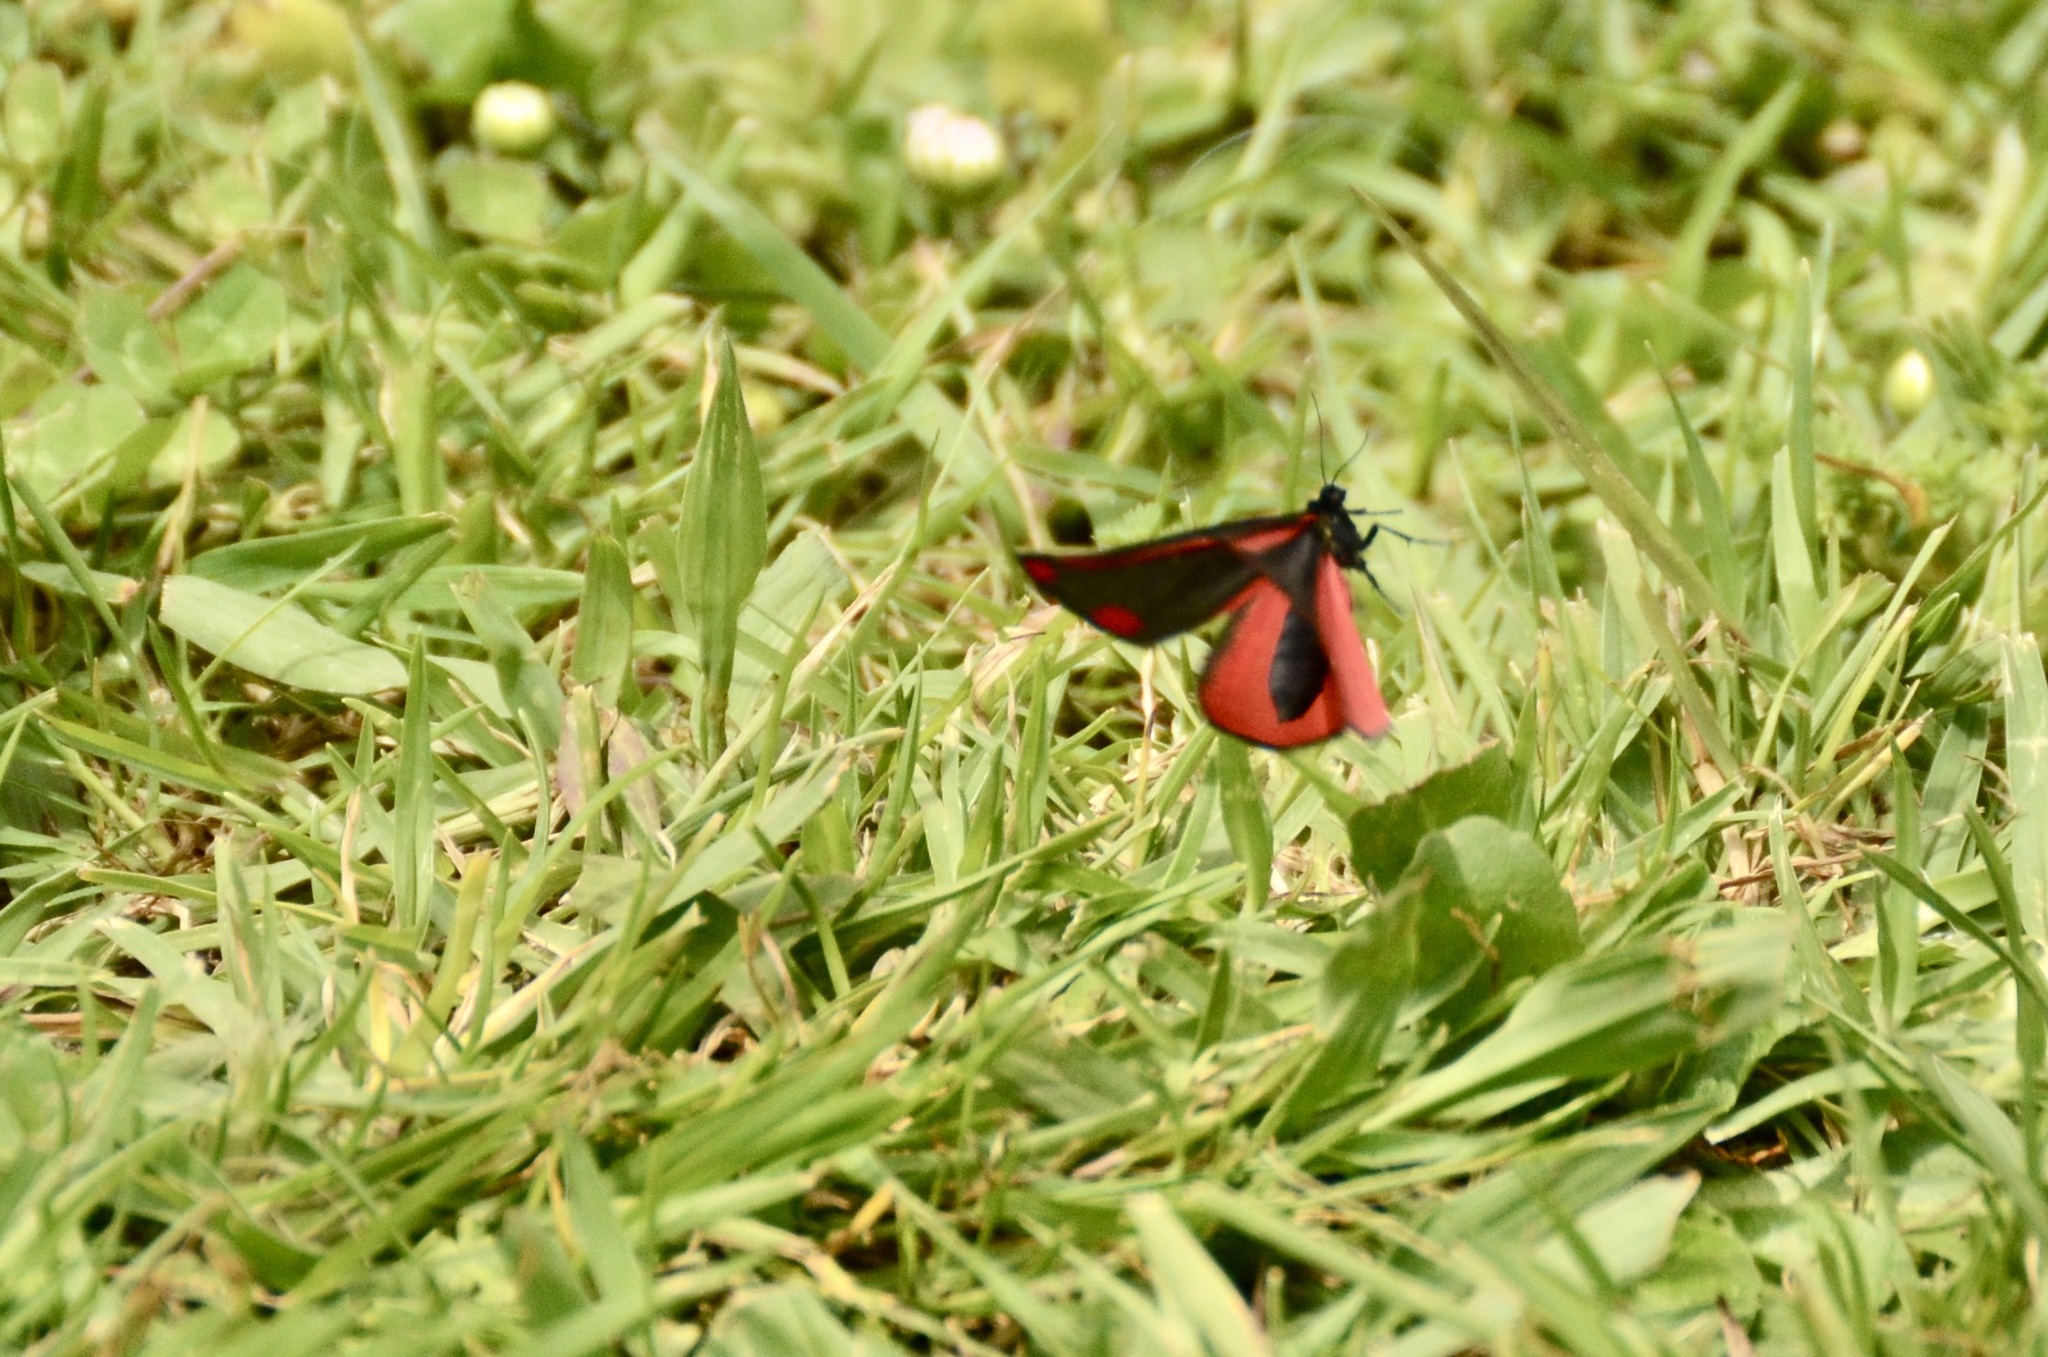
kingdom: Animalia
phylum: Arthropoda
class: Insecta
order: Lepidoptera
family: Erebidae
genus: Tyria
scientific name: Tyria jacobaeae
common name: Cinnabar
